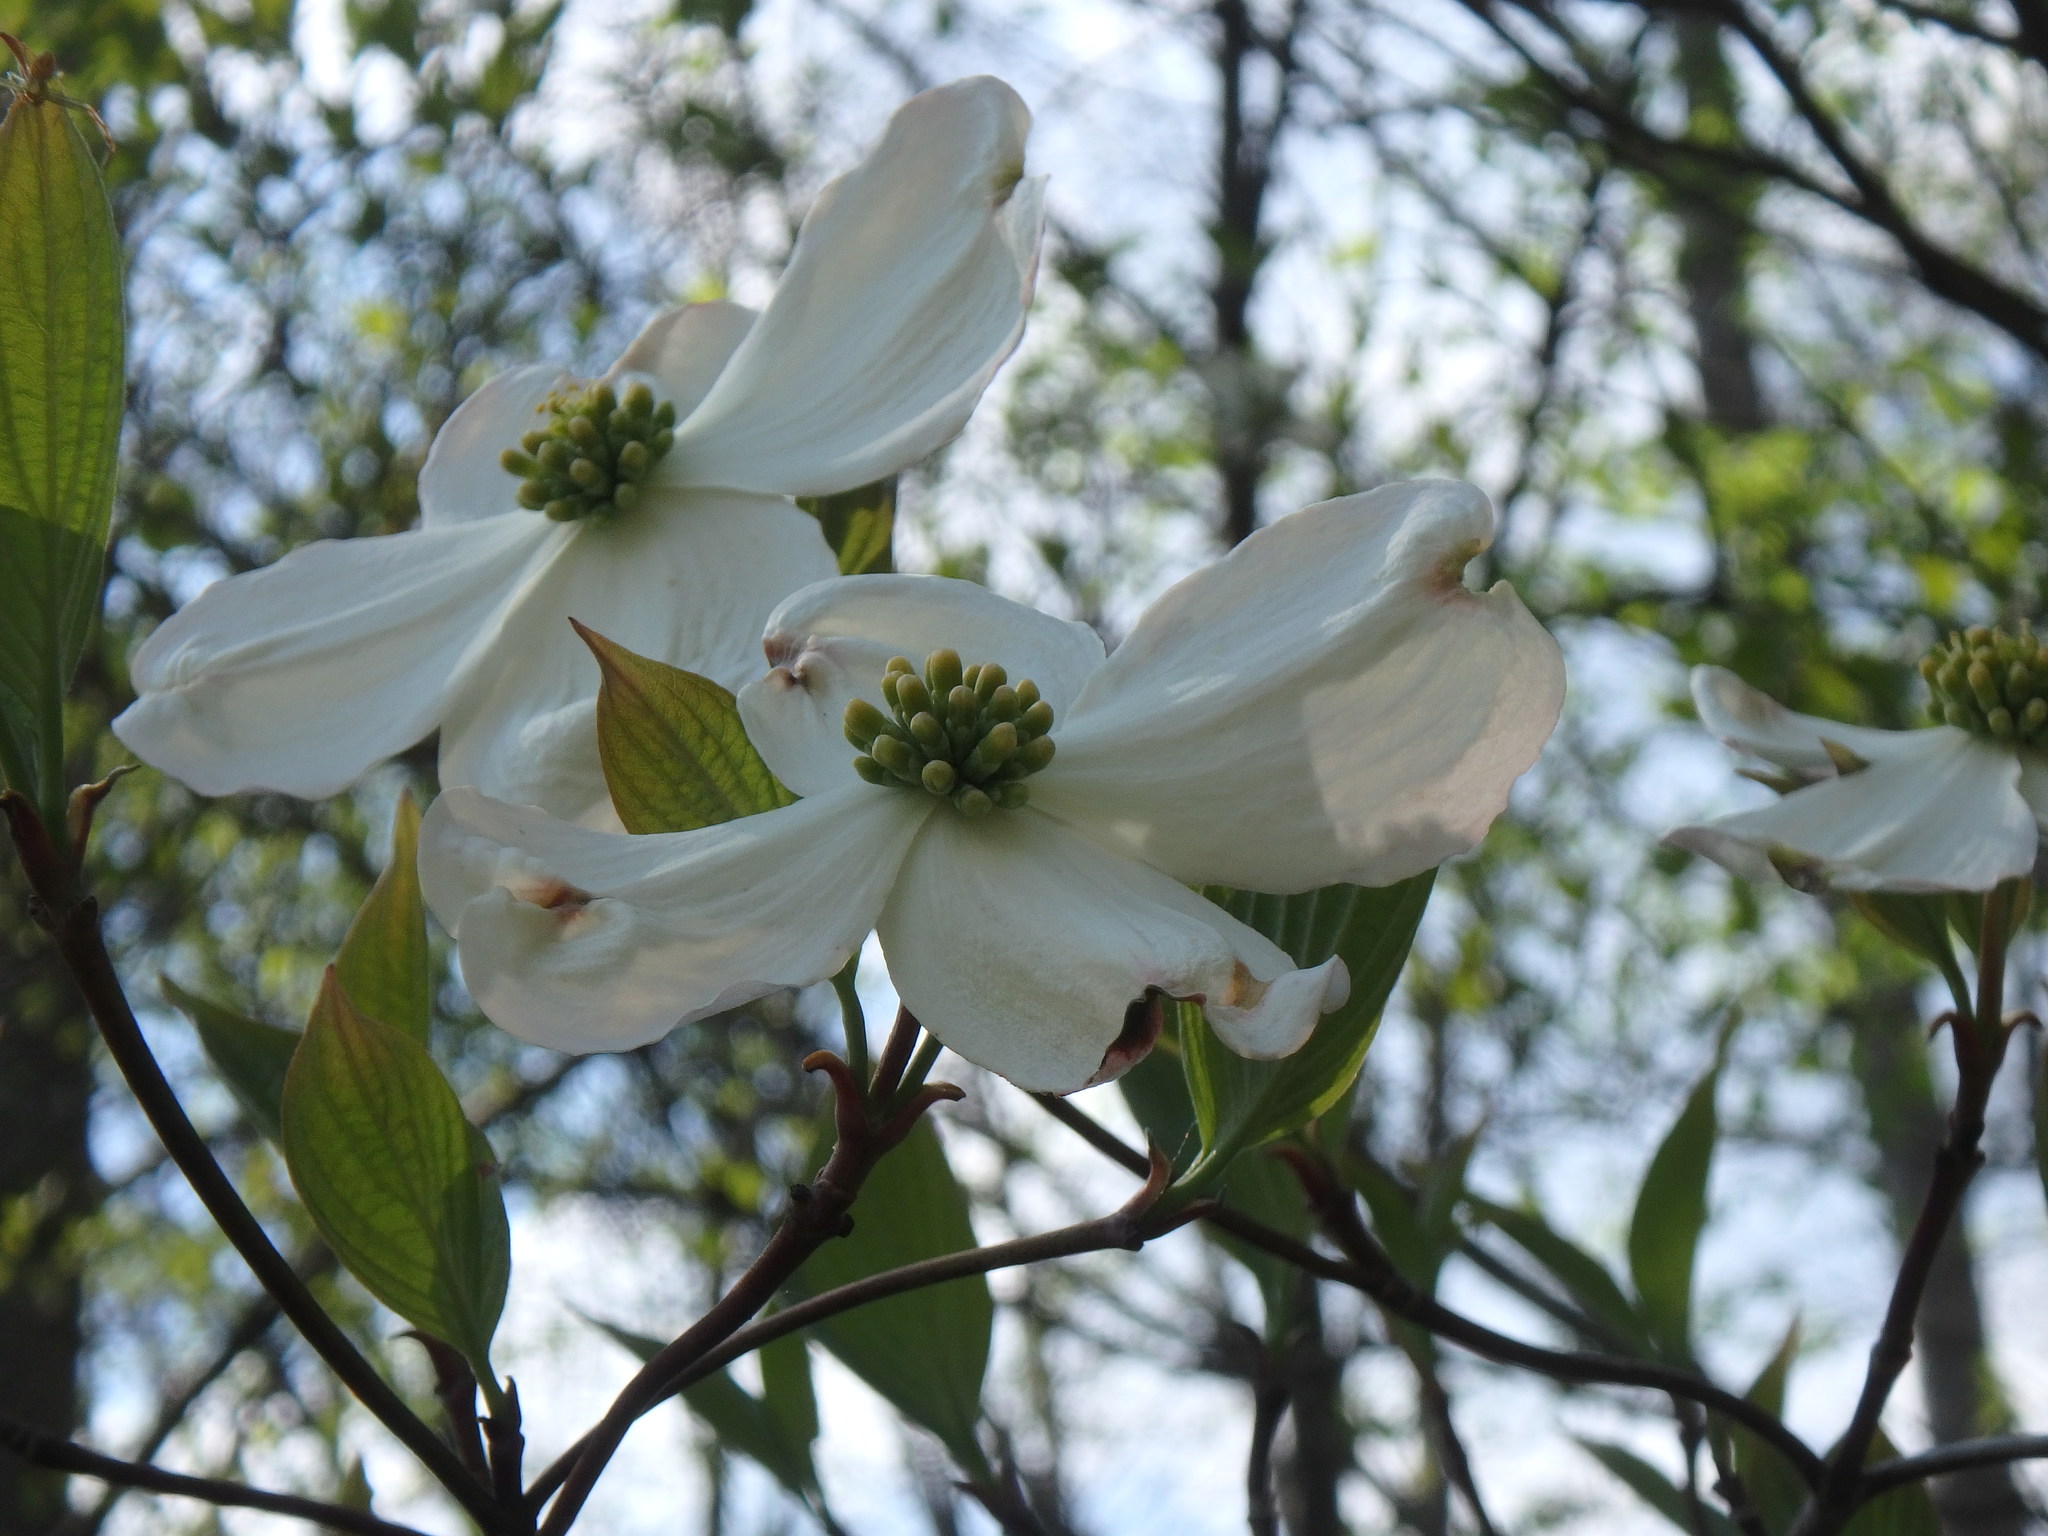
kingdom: Plantae
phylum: Tracheophyta
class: Magnoliopsida
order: Cornales
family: Cornaceae
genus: Cornus
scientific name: Cornus florida
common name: Flowering dogwood
